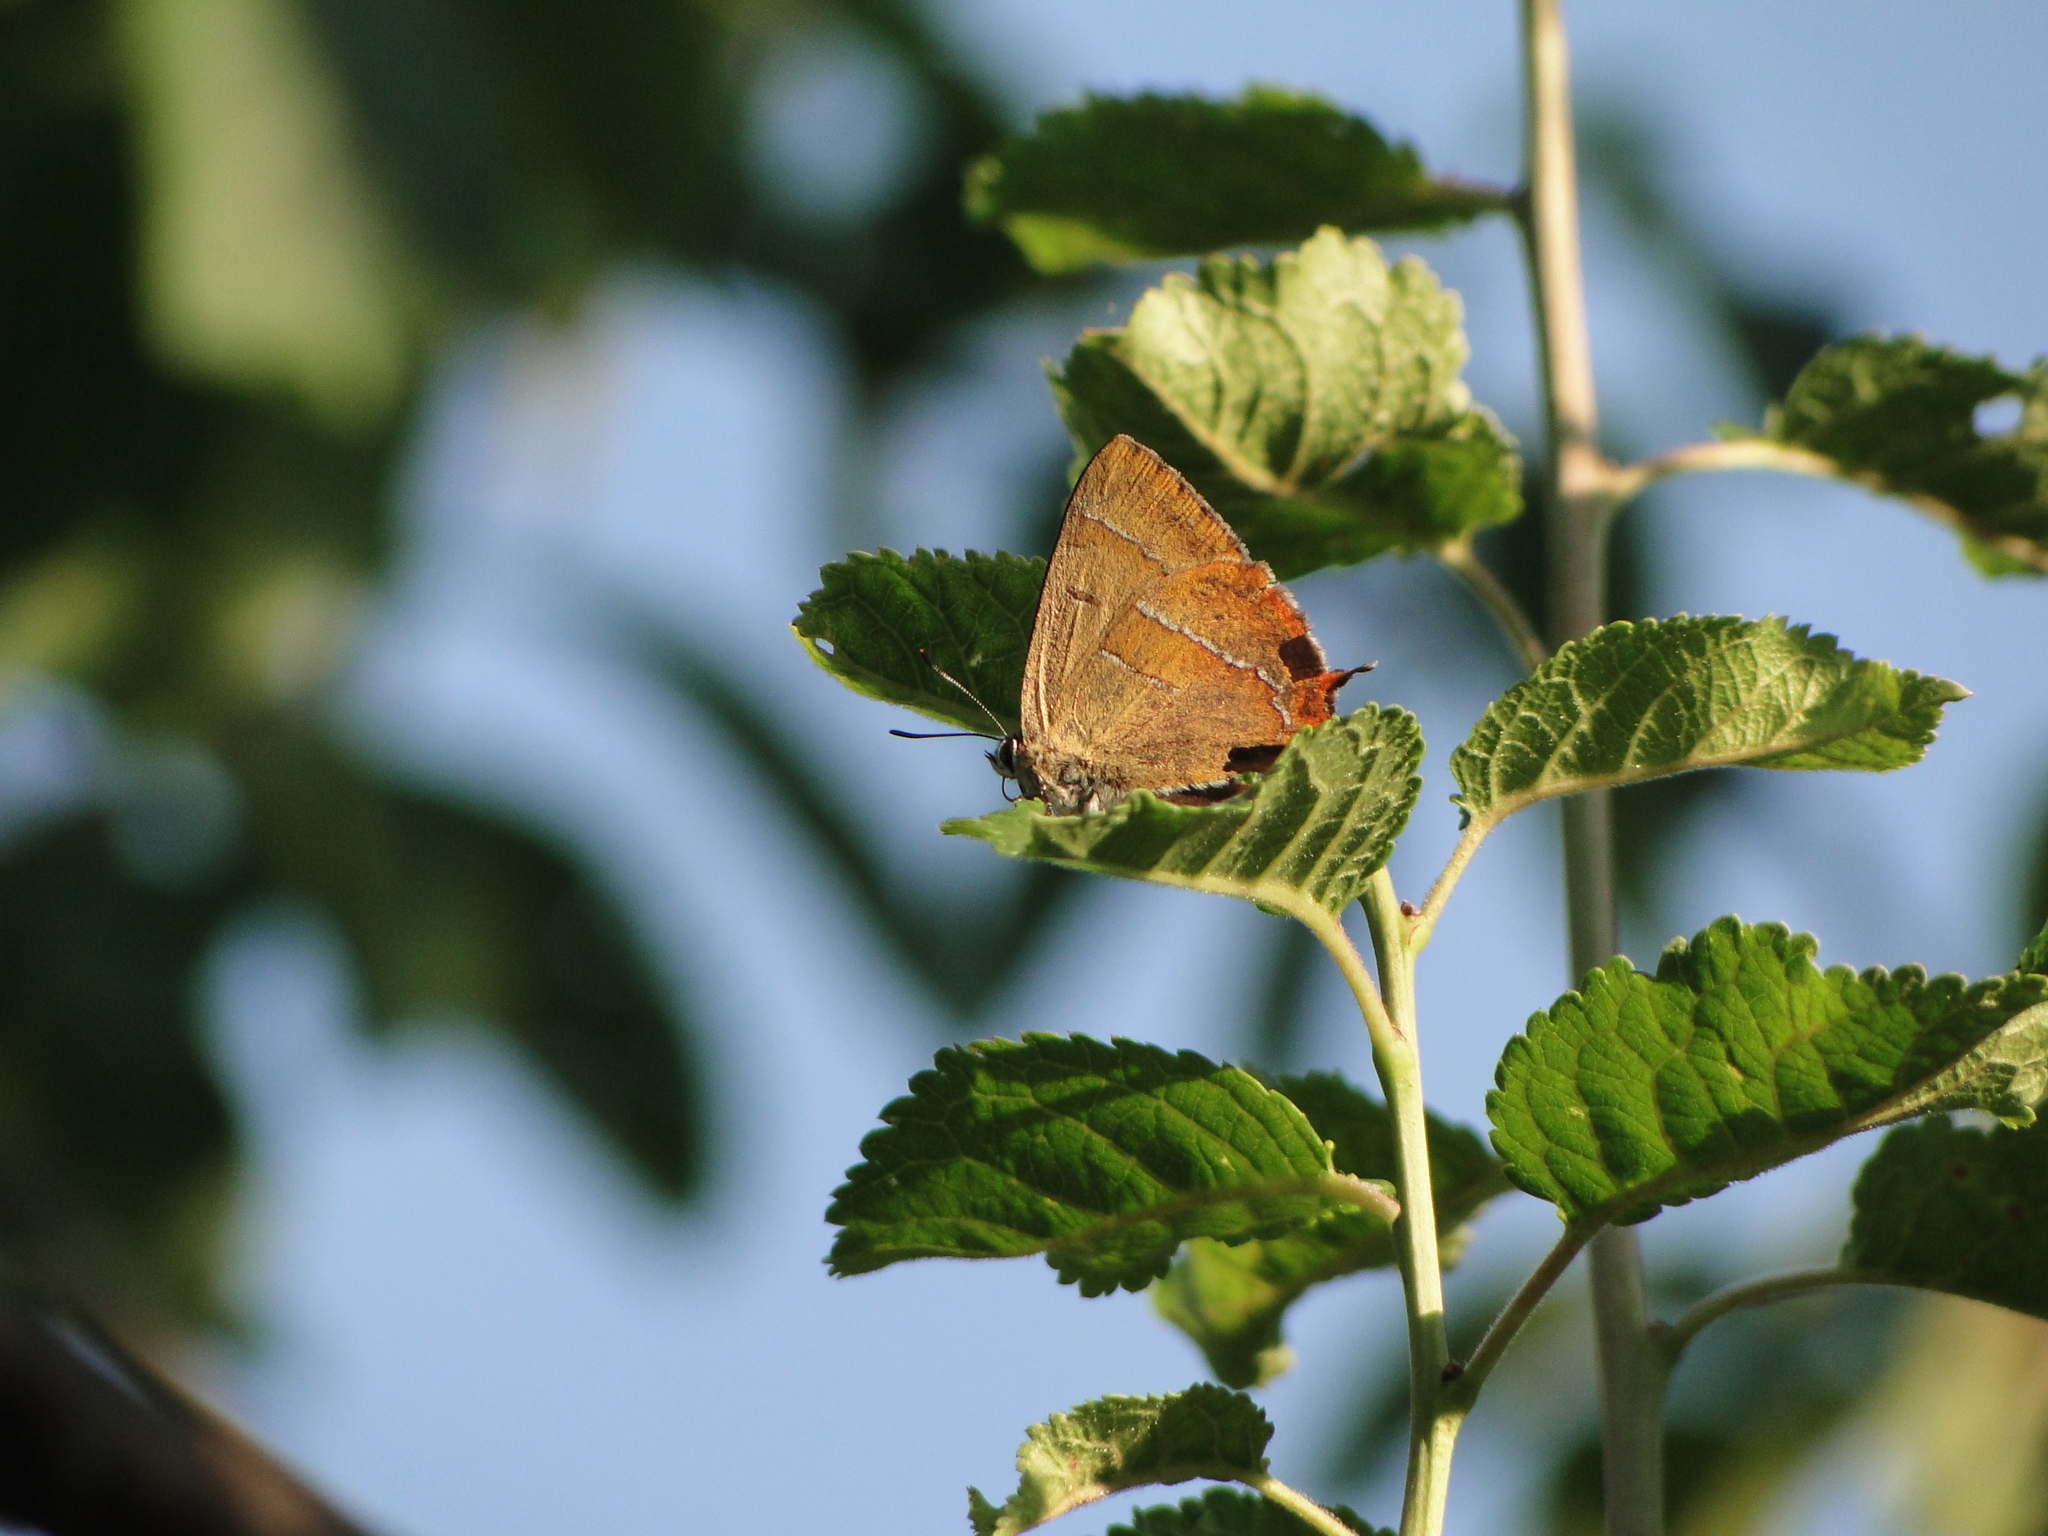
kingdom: Animalia
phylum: Arthropoda
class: Insecta
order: Lepidoptera
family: Lycaenidae
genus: Thecla
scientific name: Thecla betulae
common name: Brown hairstreak
